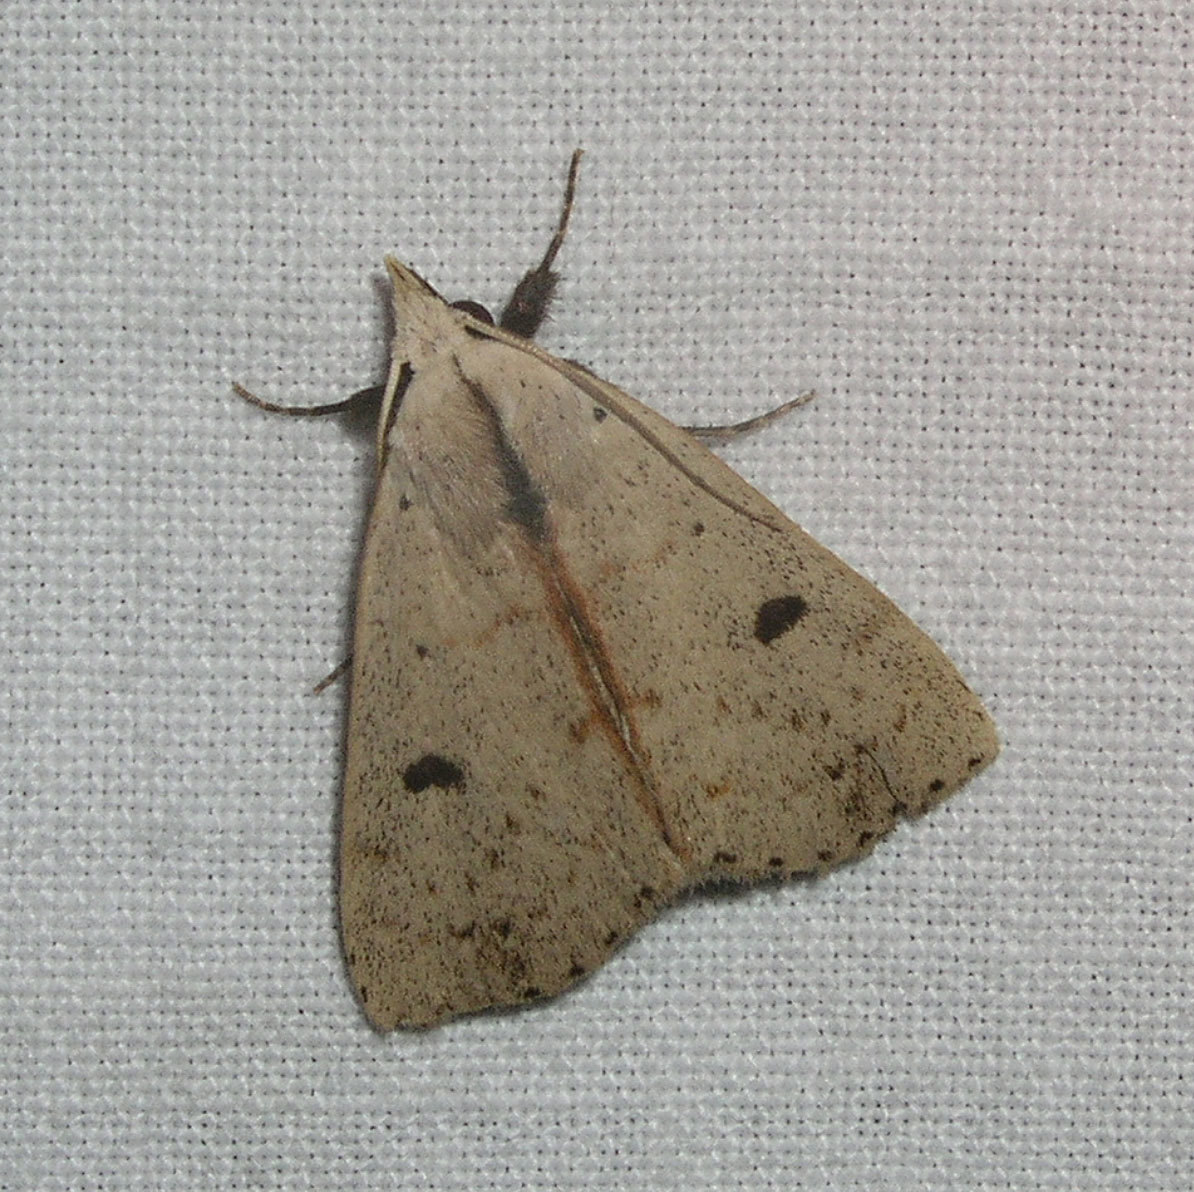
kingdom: Animalia
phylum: Arthropoda
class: Insecta
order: Lepidoptera
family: Erebidae
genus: Scolecocampa
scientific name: Scolecocampa liburna
